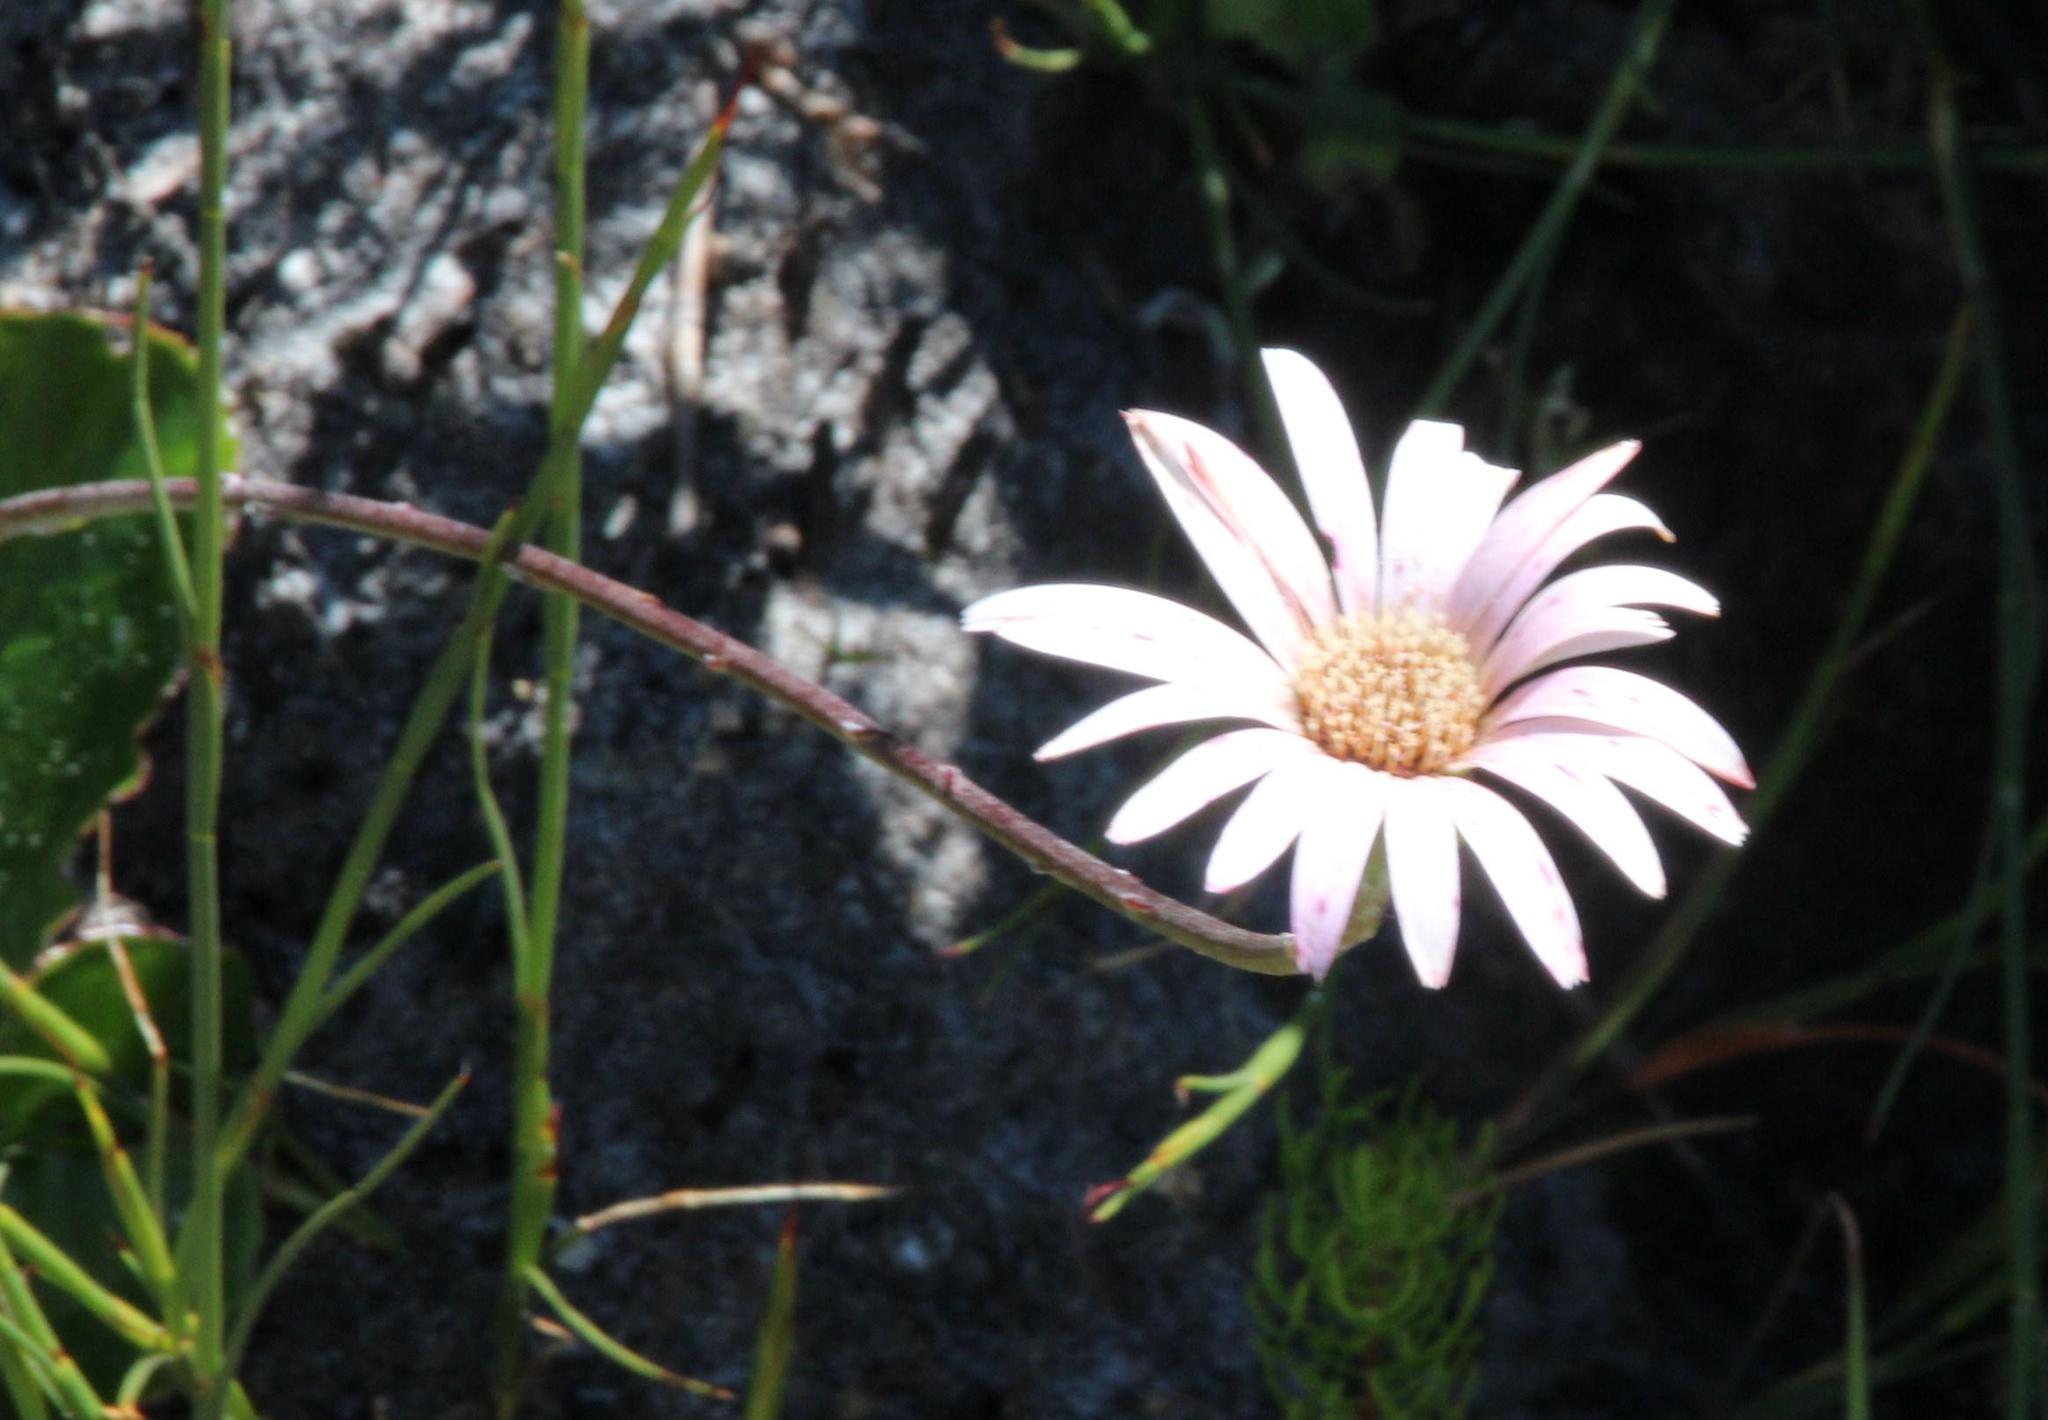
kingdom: Plantae
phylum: Tracheophyta
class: Magnoliopsida
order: Asterales
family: Asteraceae
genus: Gerbera
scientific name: Gerbera crocea
